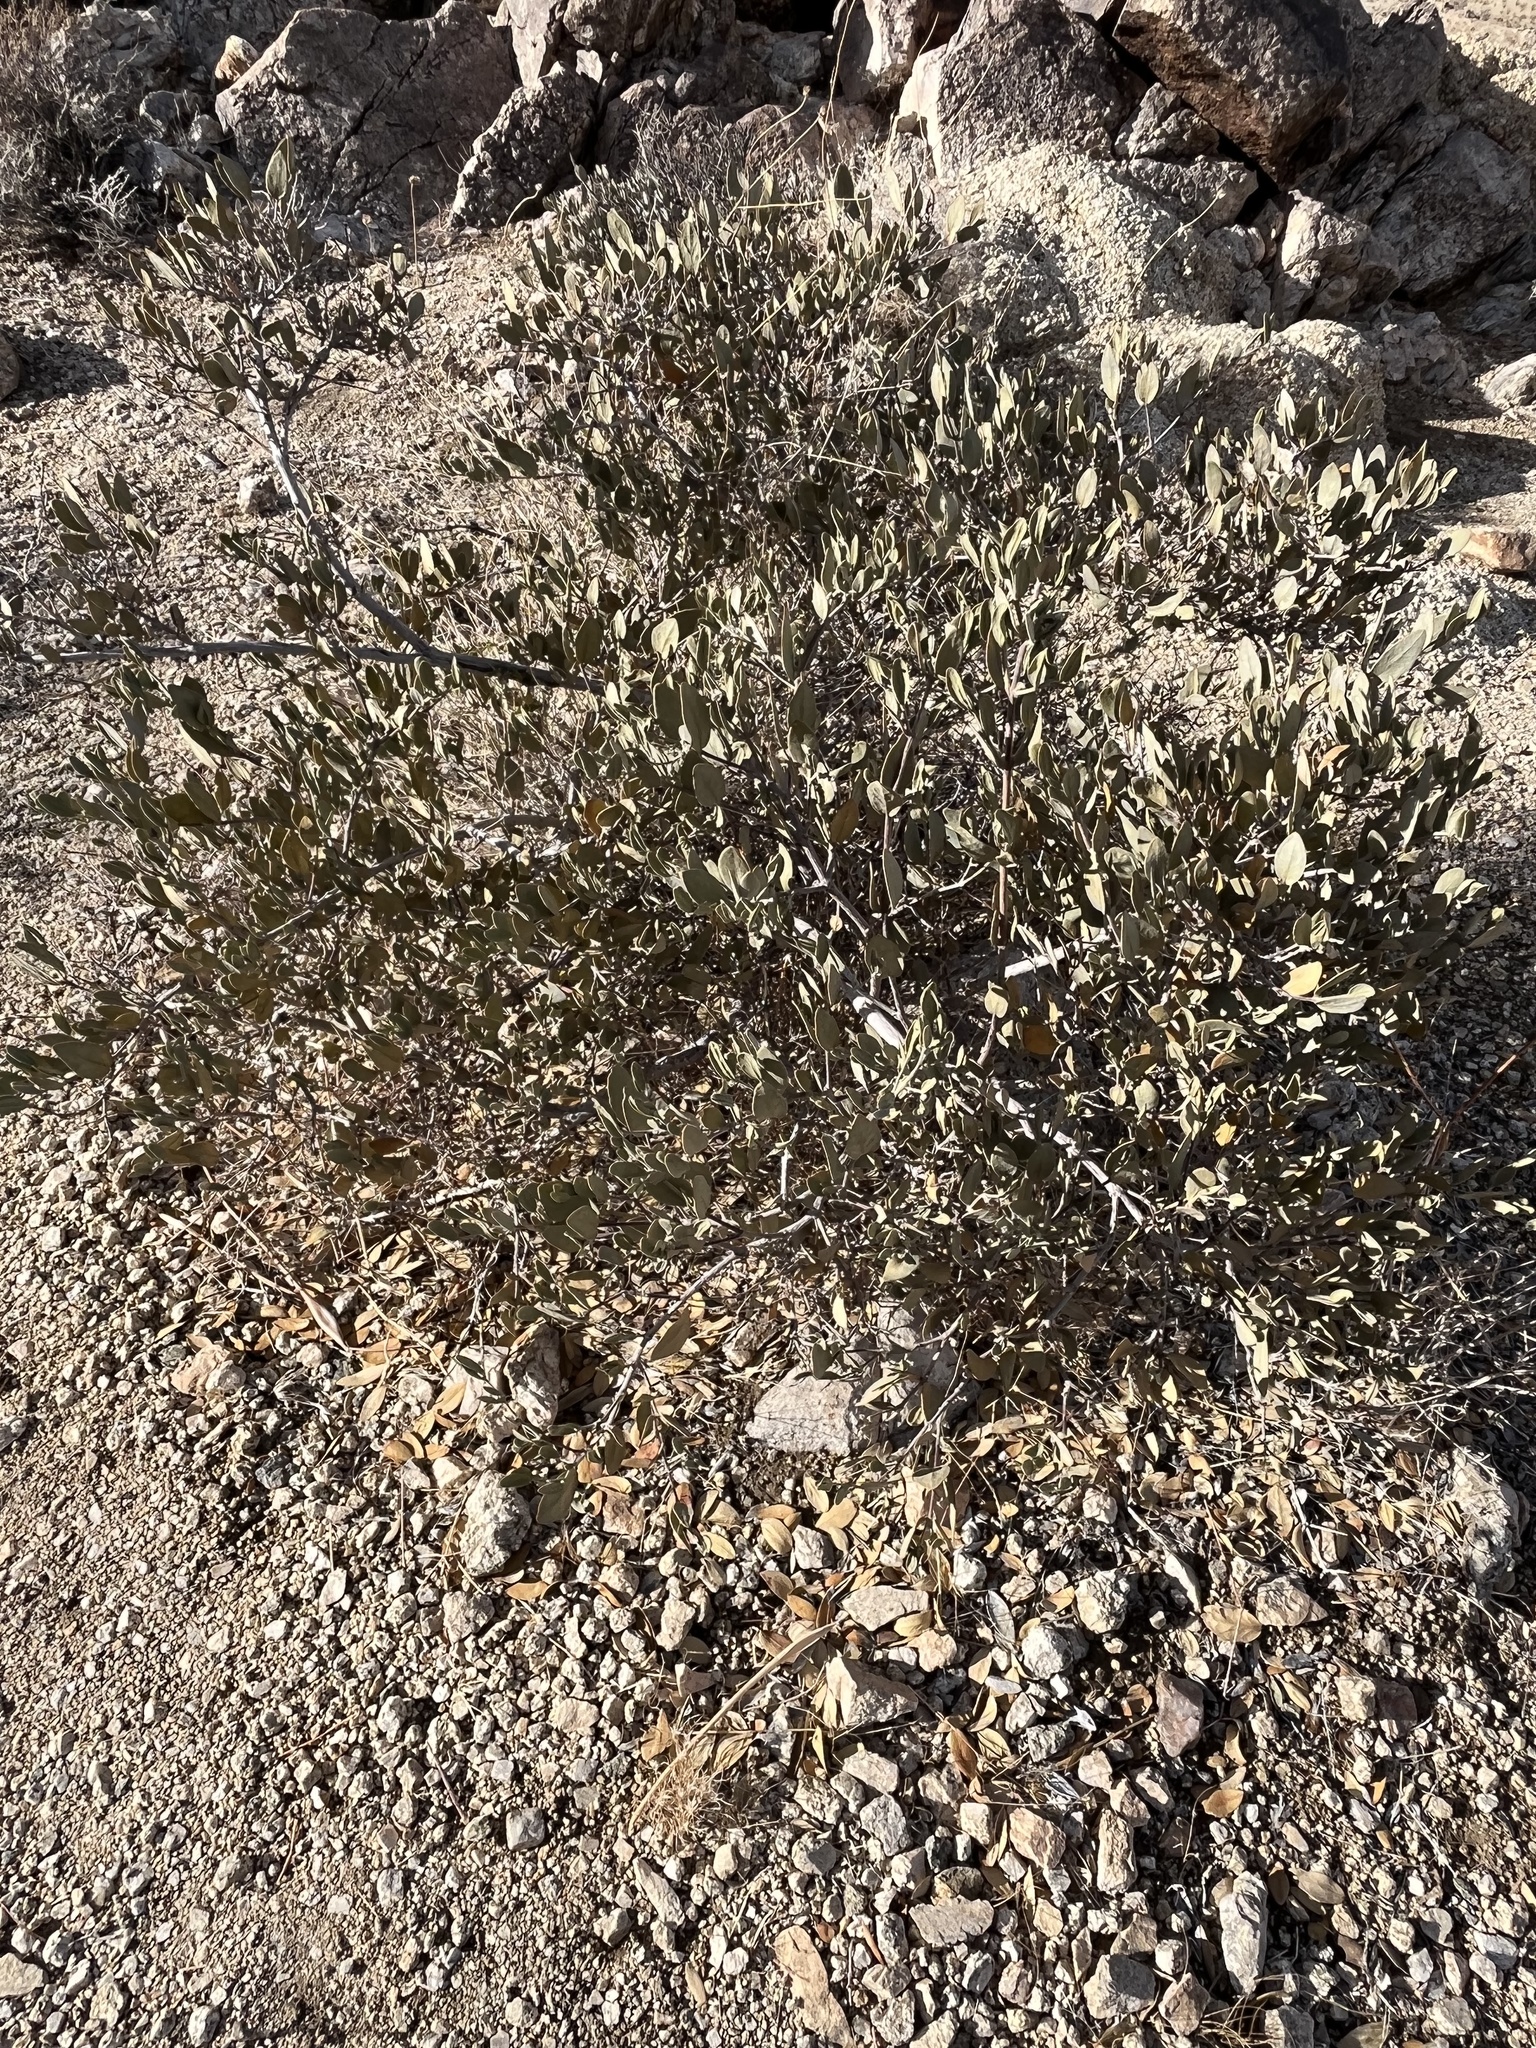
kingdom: Plantae
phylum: Tracheophyta
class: Magnoliopsida
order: Caryophyllales
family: Simmondsiaceae
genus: Simmondsia
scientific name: Simmondsia chinensis
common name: Jojoba
